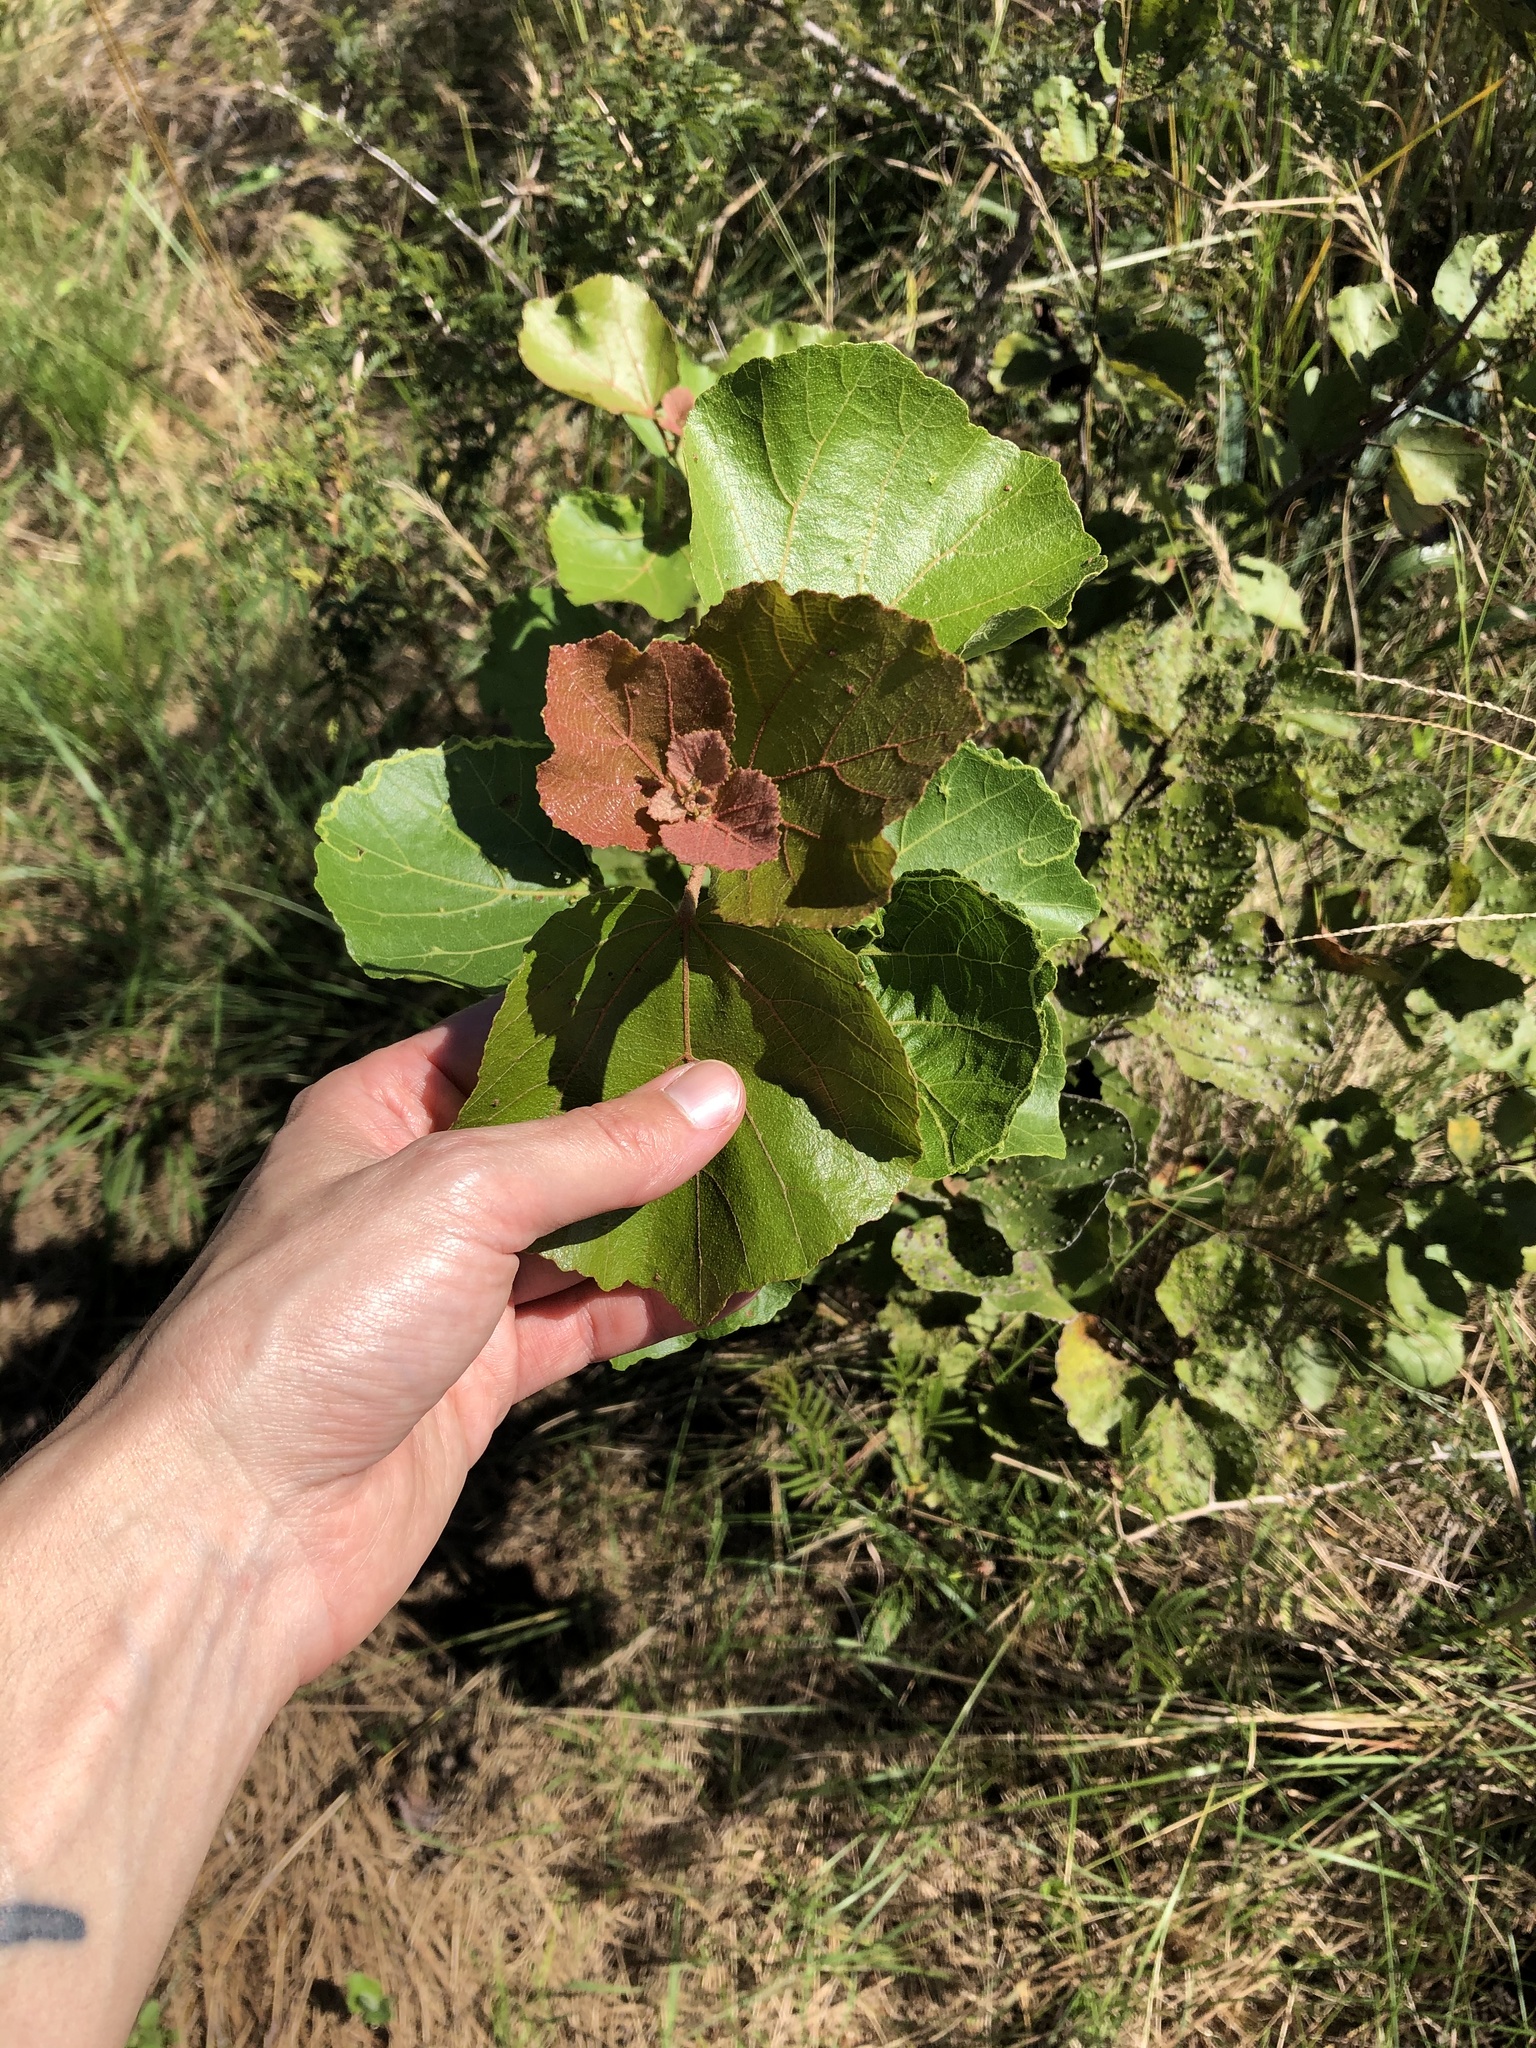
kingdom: Plantae
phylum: Tracheophyta
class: Magnoliopsida
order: Malvales
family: Malvaceae
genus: Dombeya
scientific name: Dombeya rotundifolia
